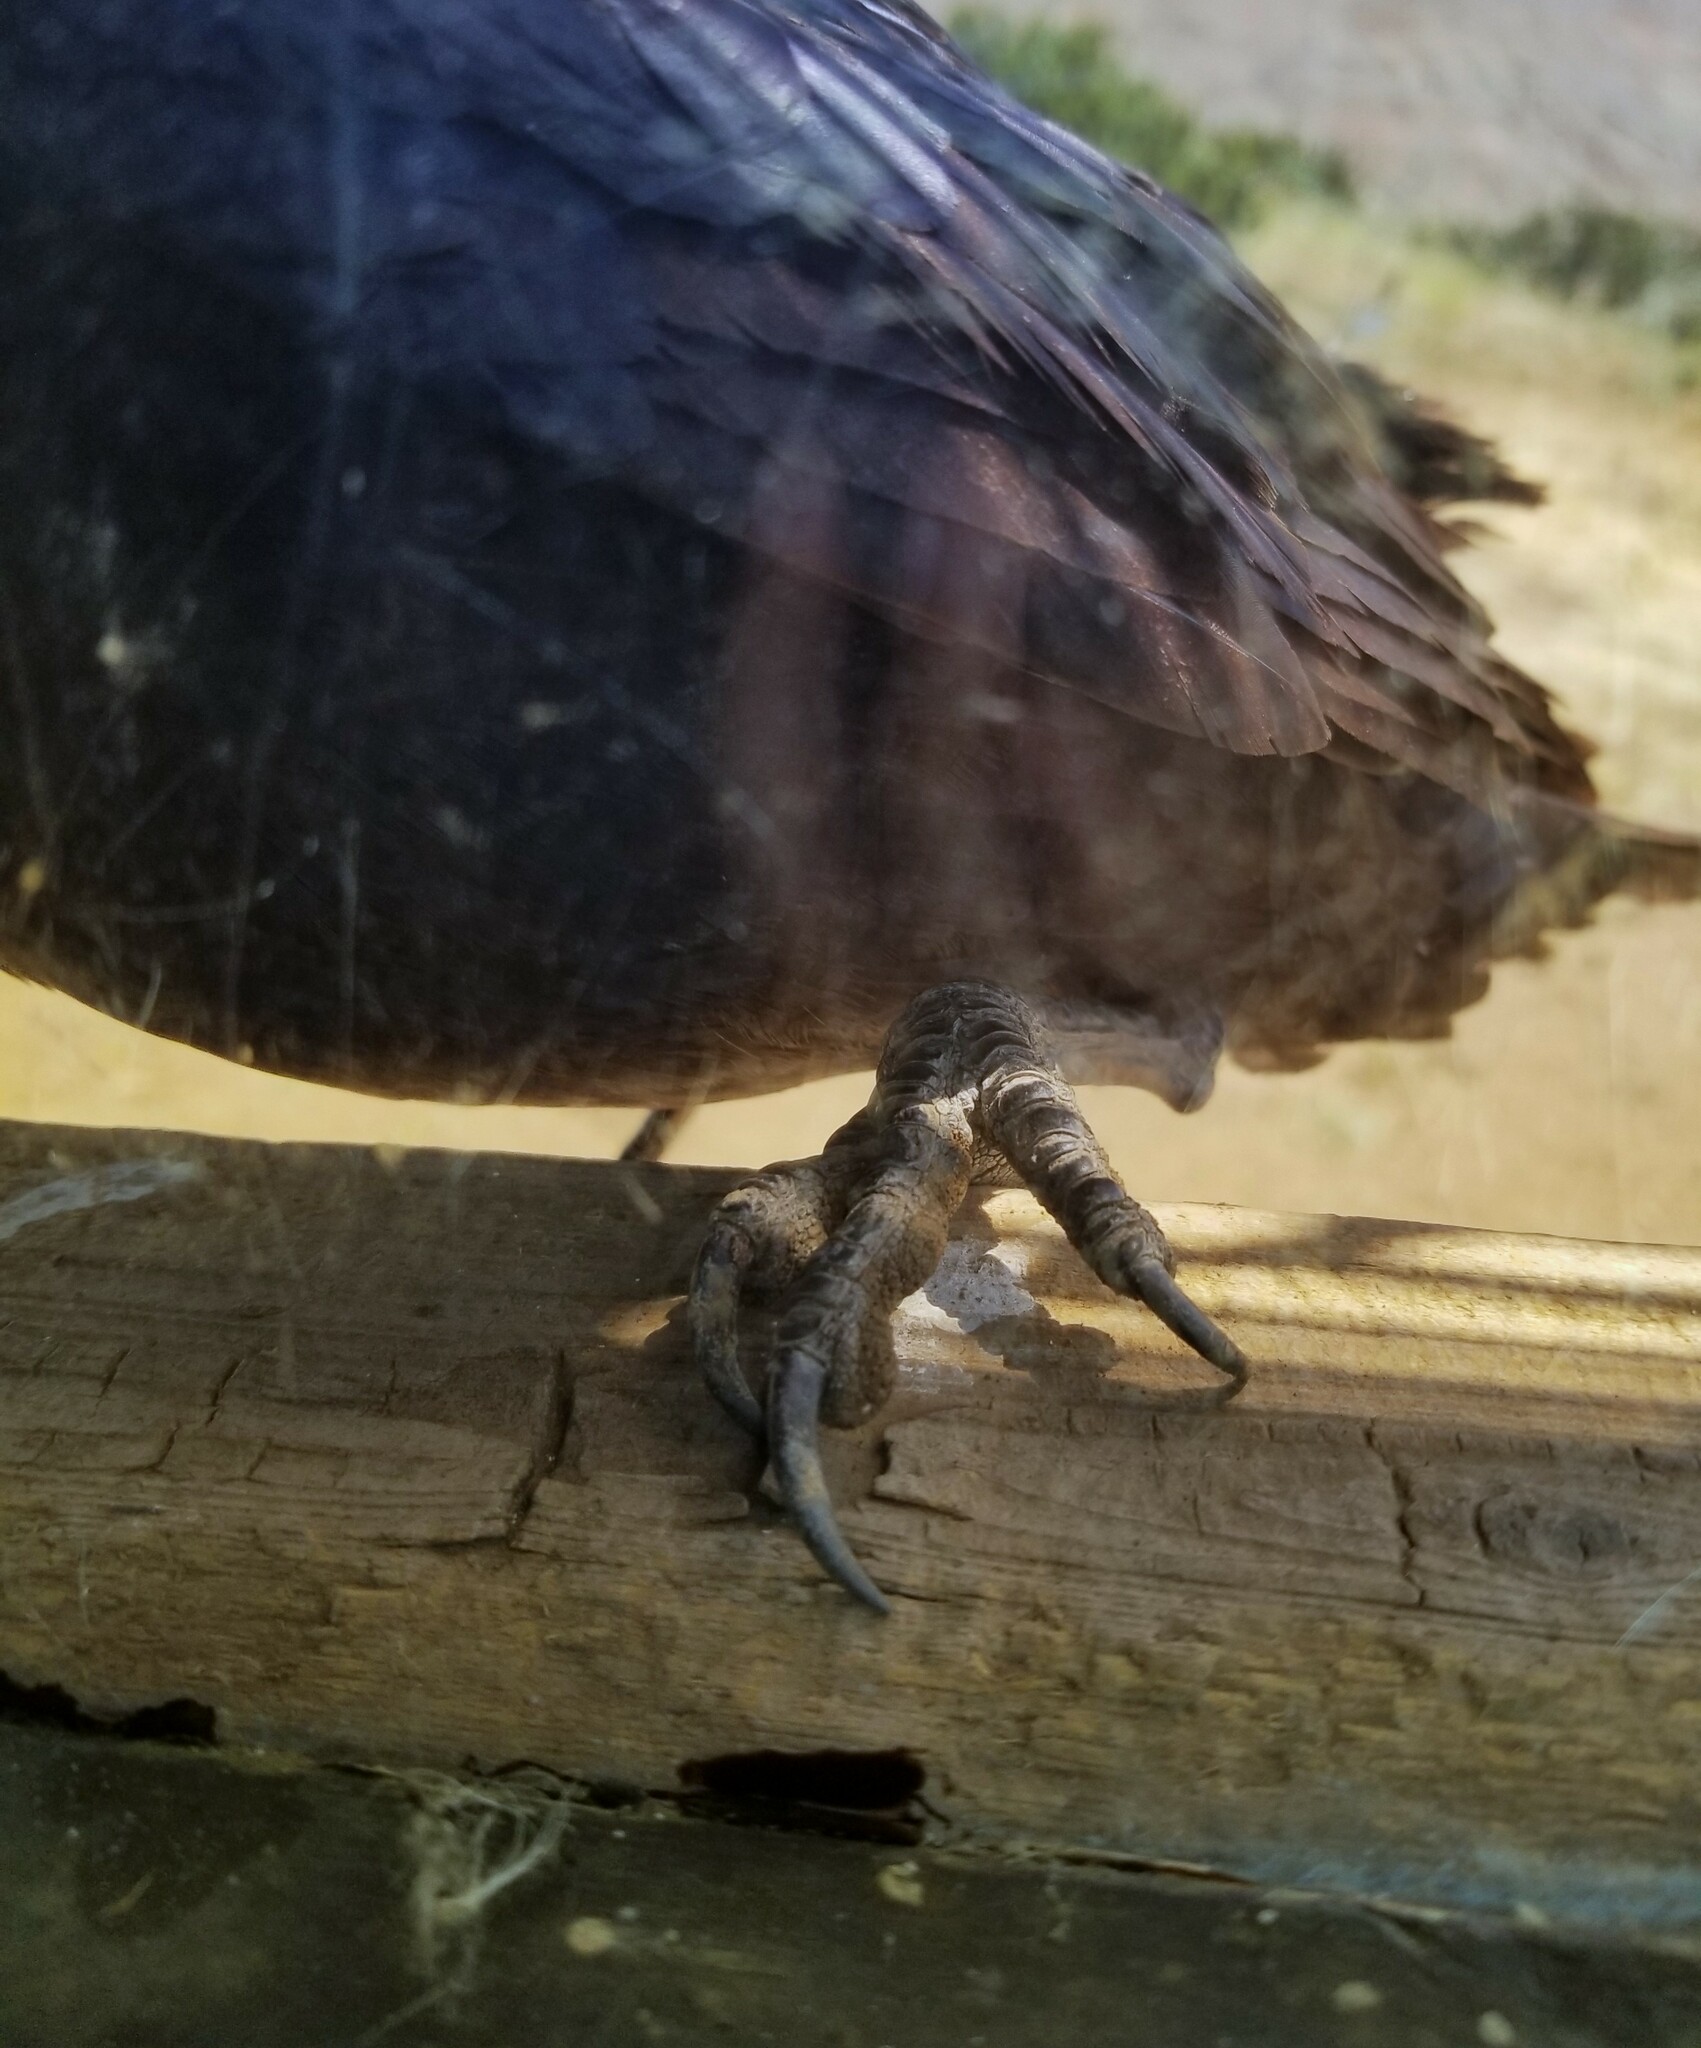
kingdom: Animalia
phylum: Chordata
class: Aves
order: Passeriformes
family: Corvidae
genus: Corvus
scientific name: Corvus corax
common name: Common raven
